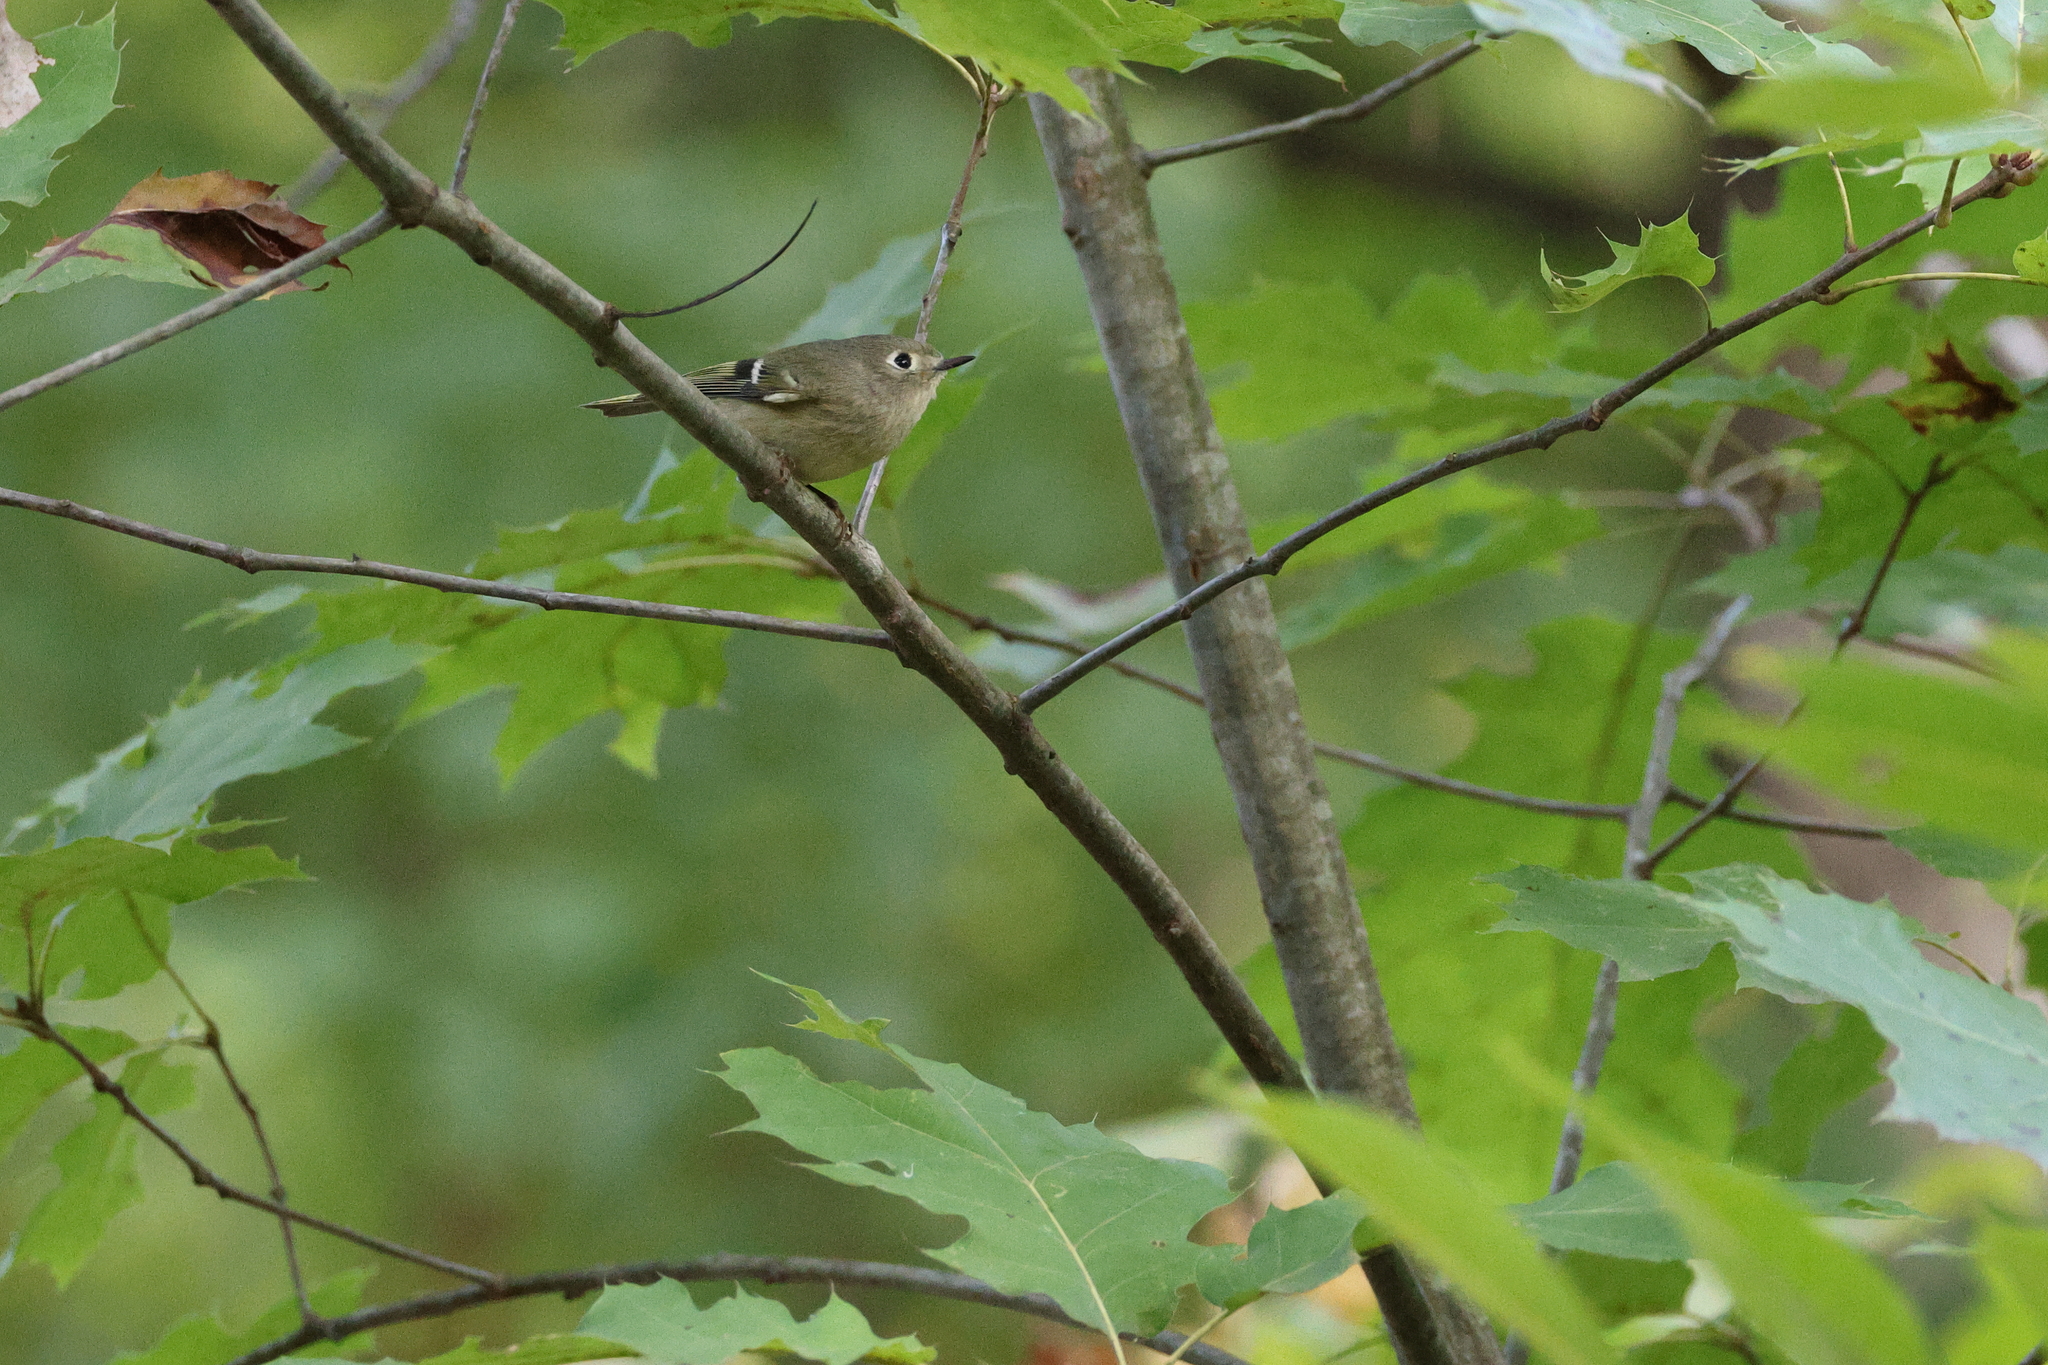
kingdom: Animalia
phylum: Chordata
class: Aves
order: Passeriformes
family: Regulidae
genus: Regulus
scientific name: Regulus calendula
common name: Ruby-crowned kinglet
